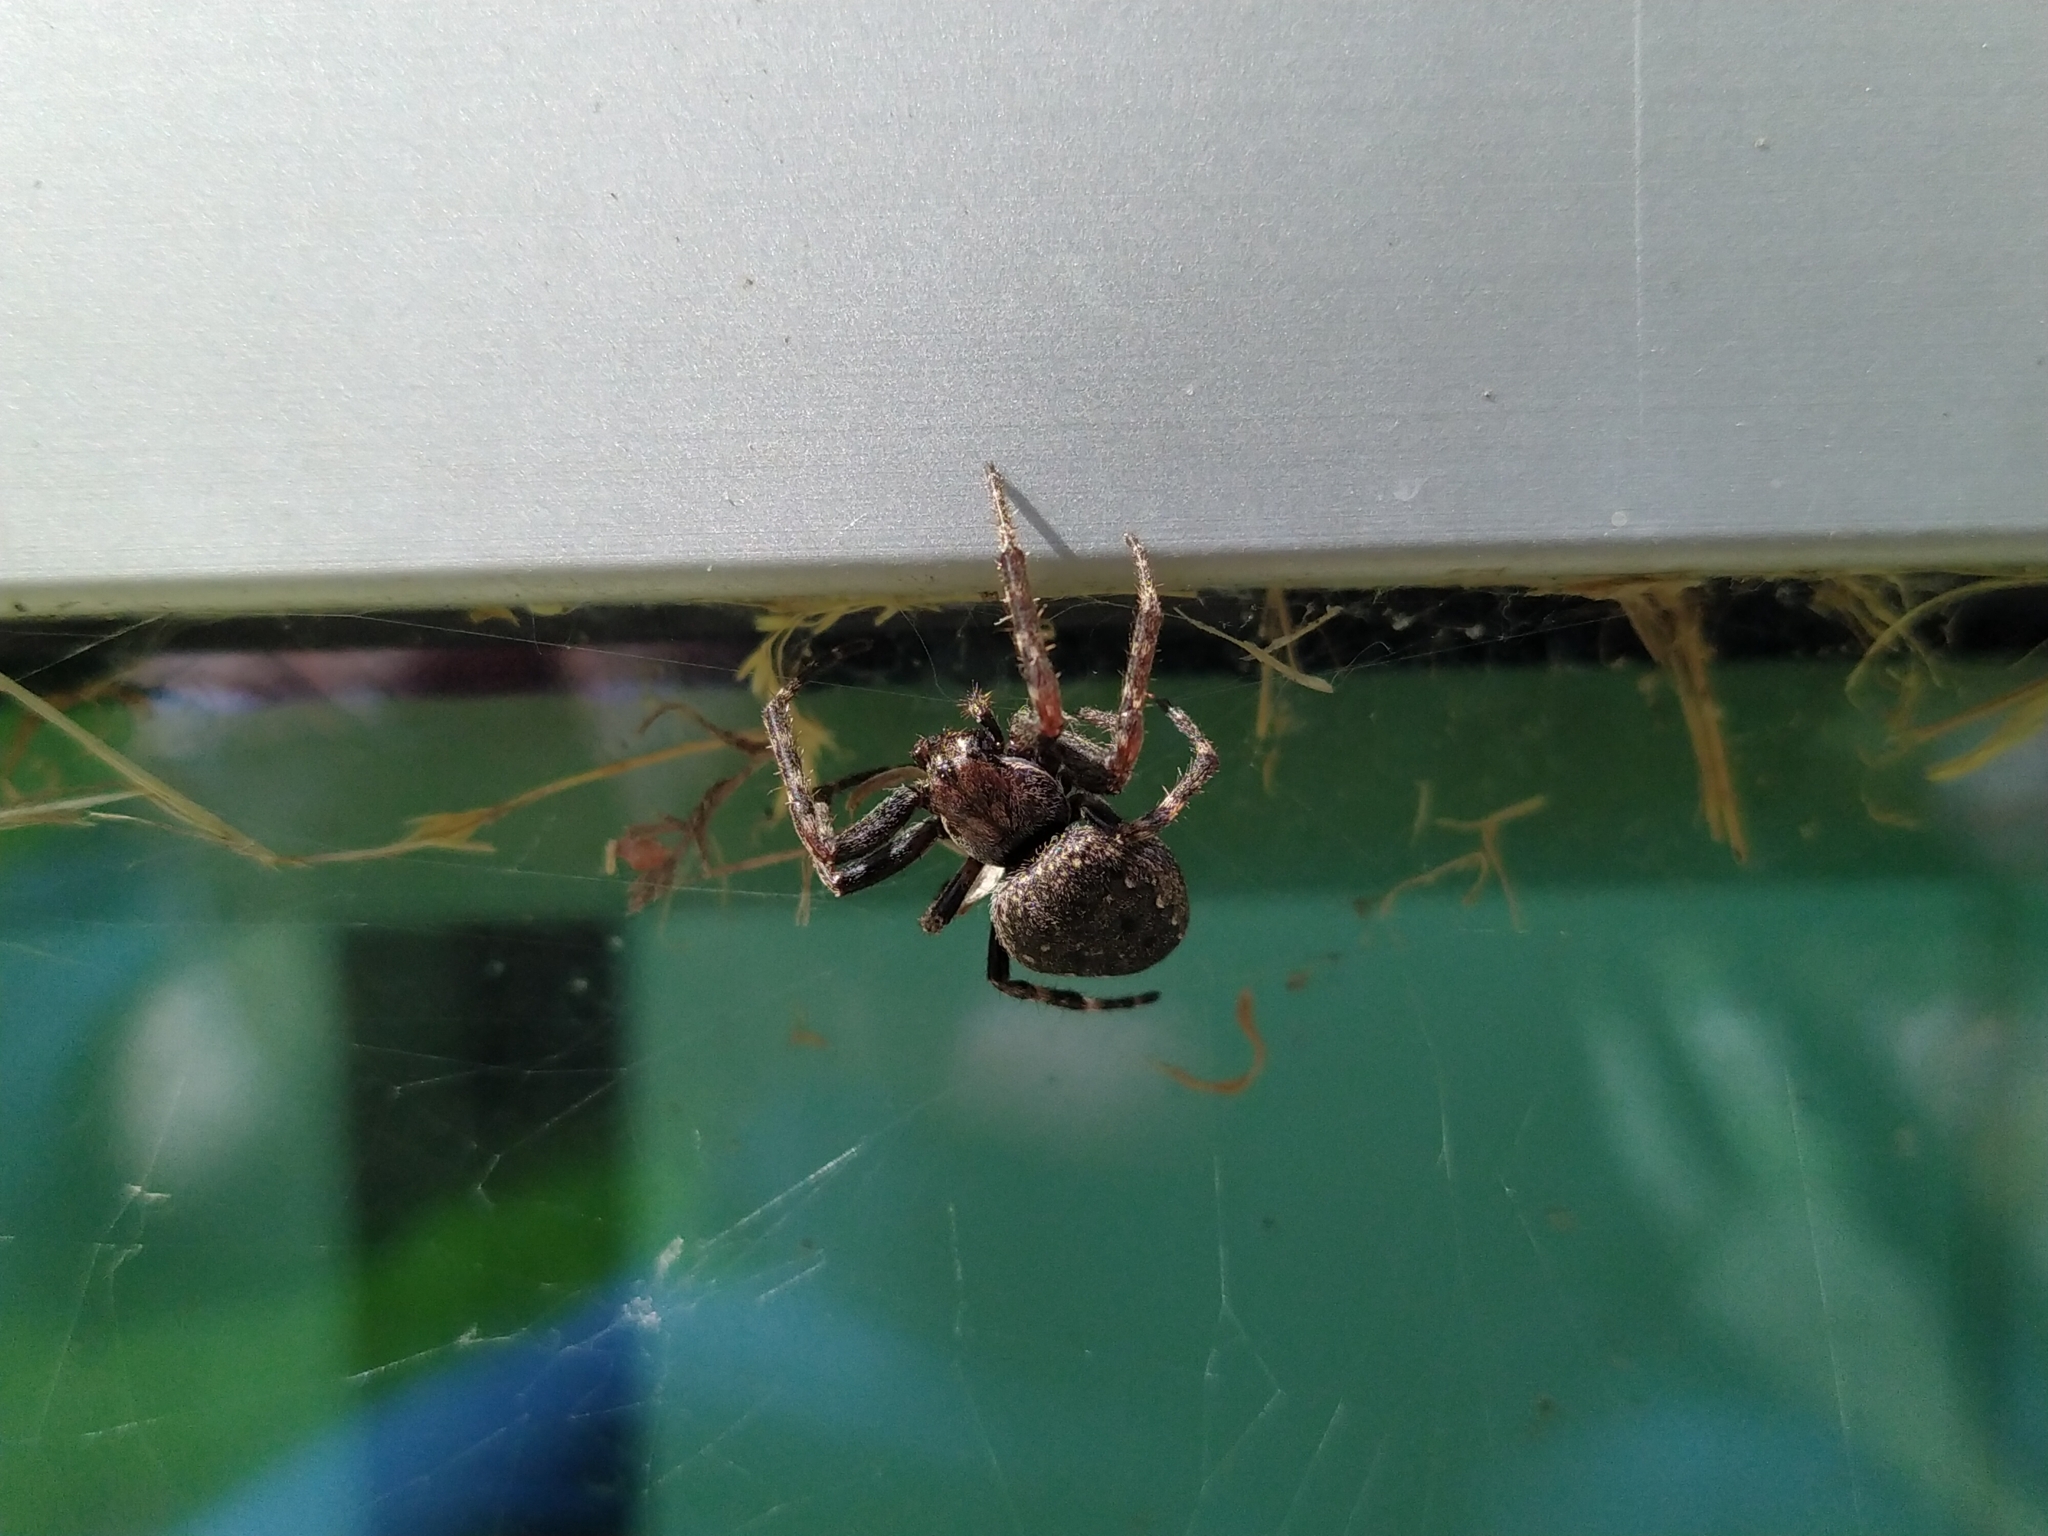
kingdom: Animalia
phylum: Arthropoda
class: Arachnida
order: Araneae
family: Araneidae
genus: Nuctenea
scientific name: Nuctenea umbratica
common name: Toad spider
